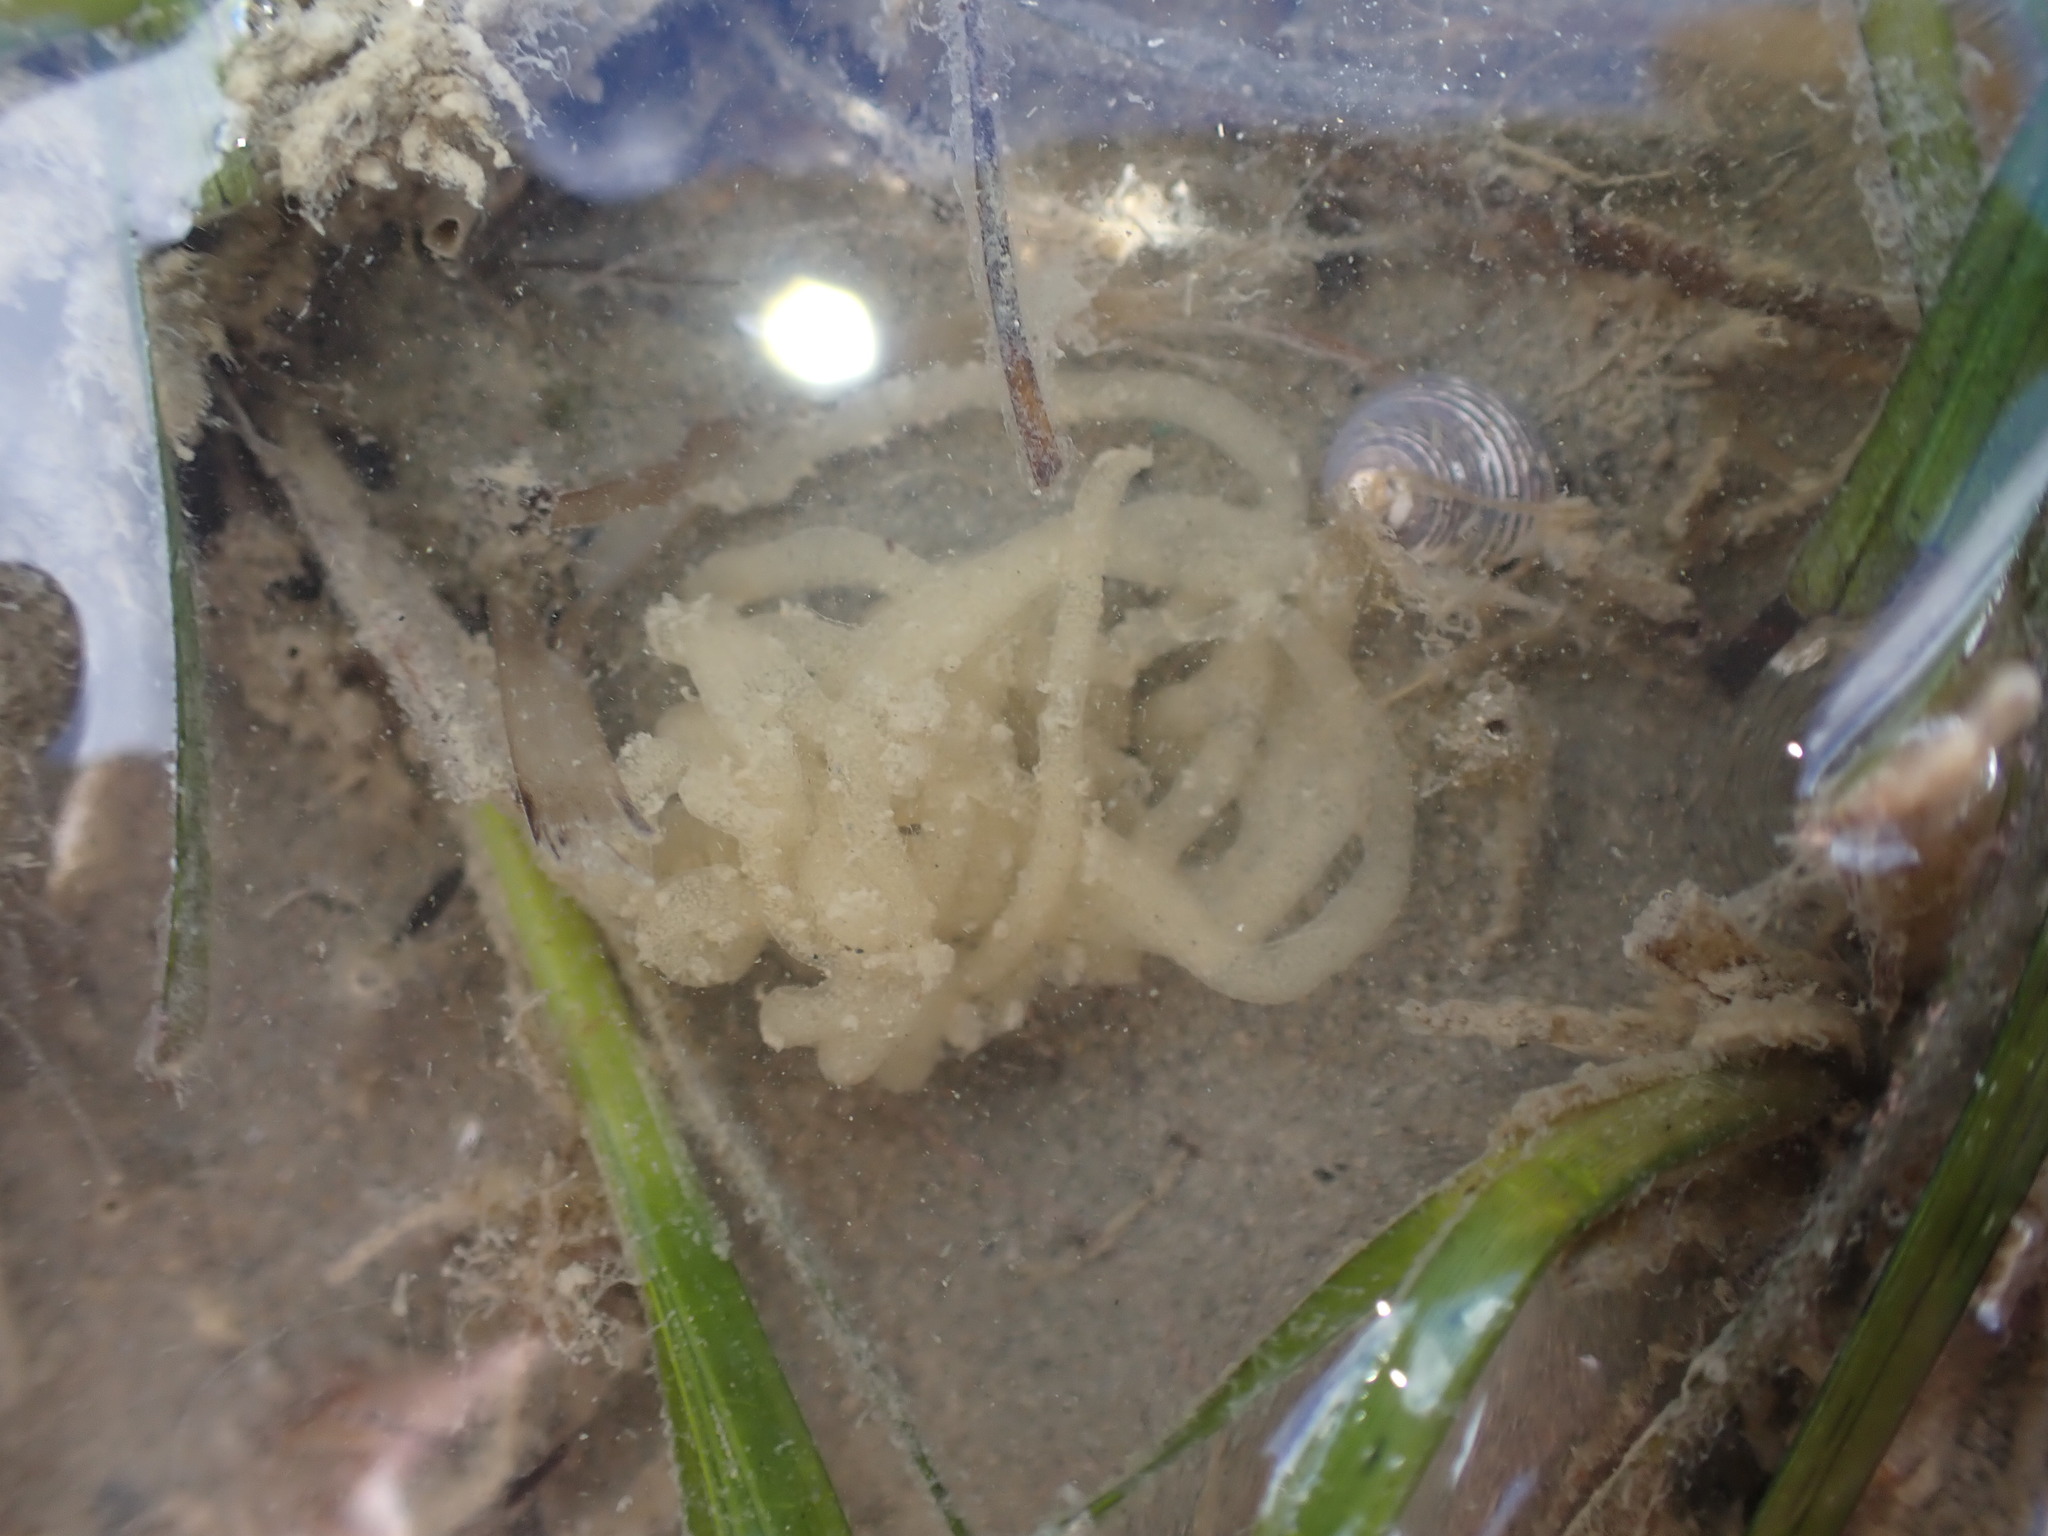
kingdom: Animalia
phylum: Mollusca
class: Gastropoda
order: Cephalaspidea
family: Bullidae
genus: Bulla
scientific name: Bulla quoyii
